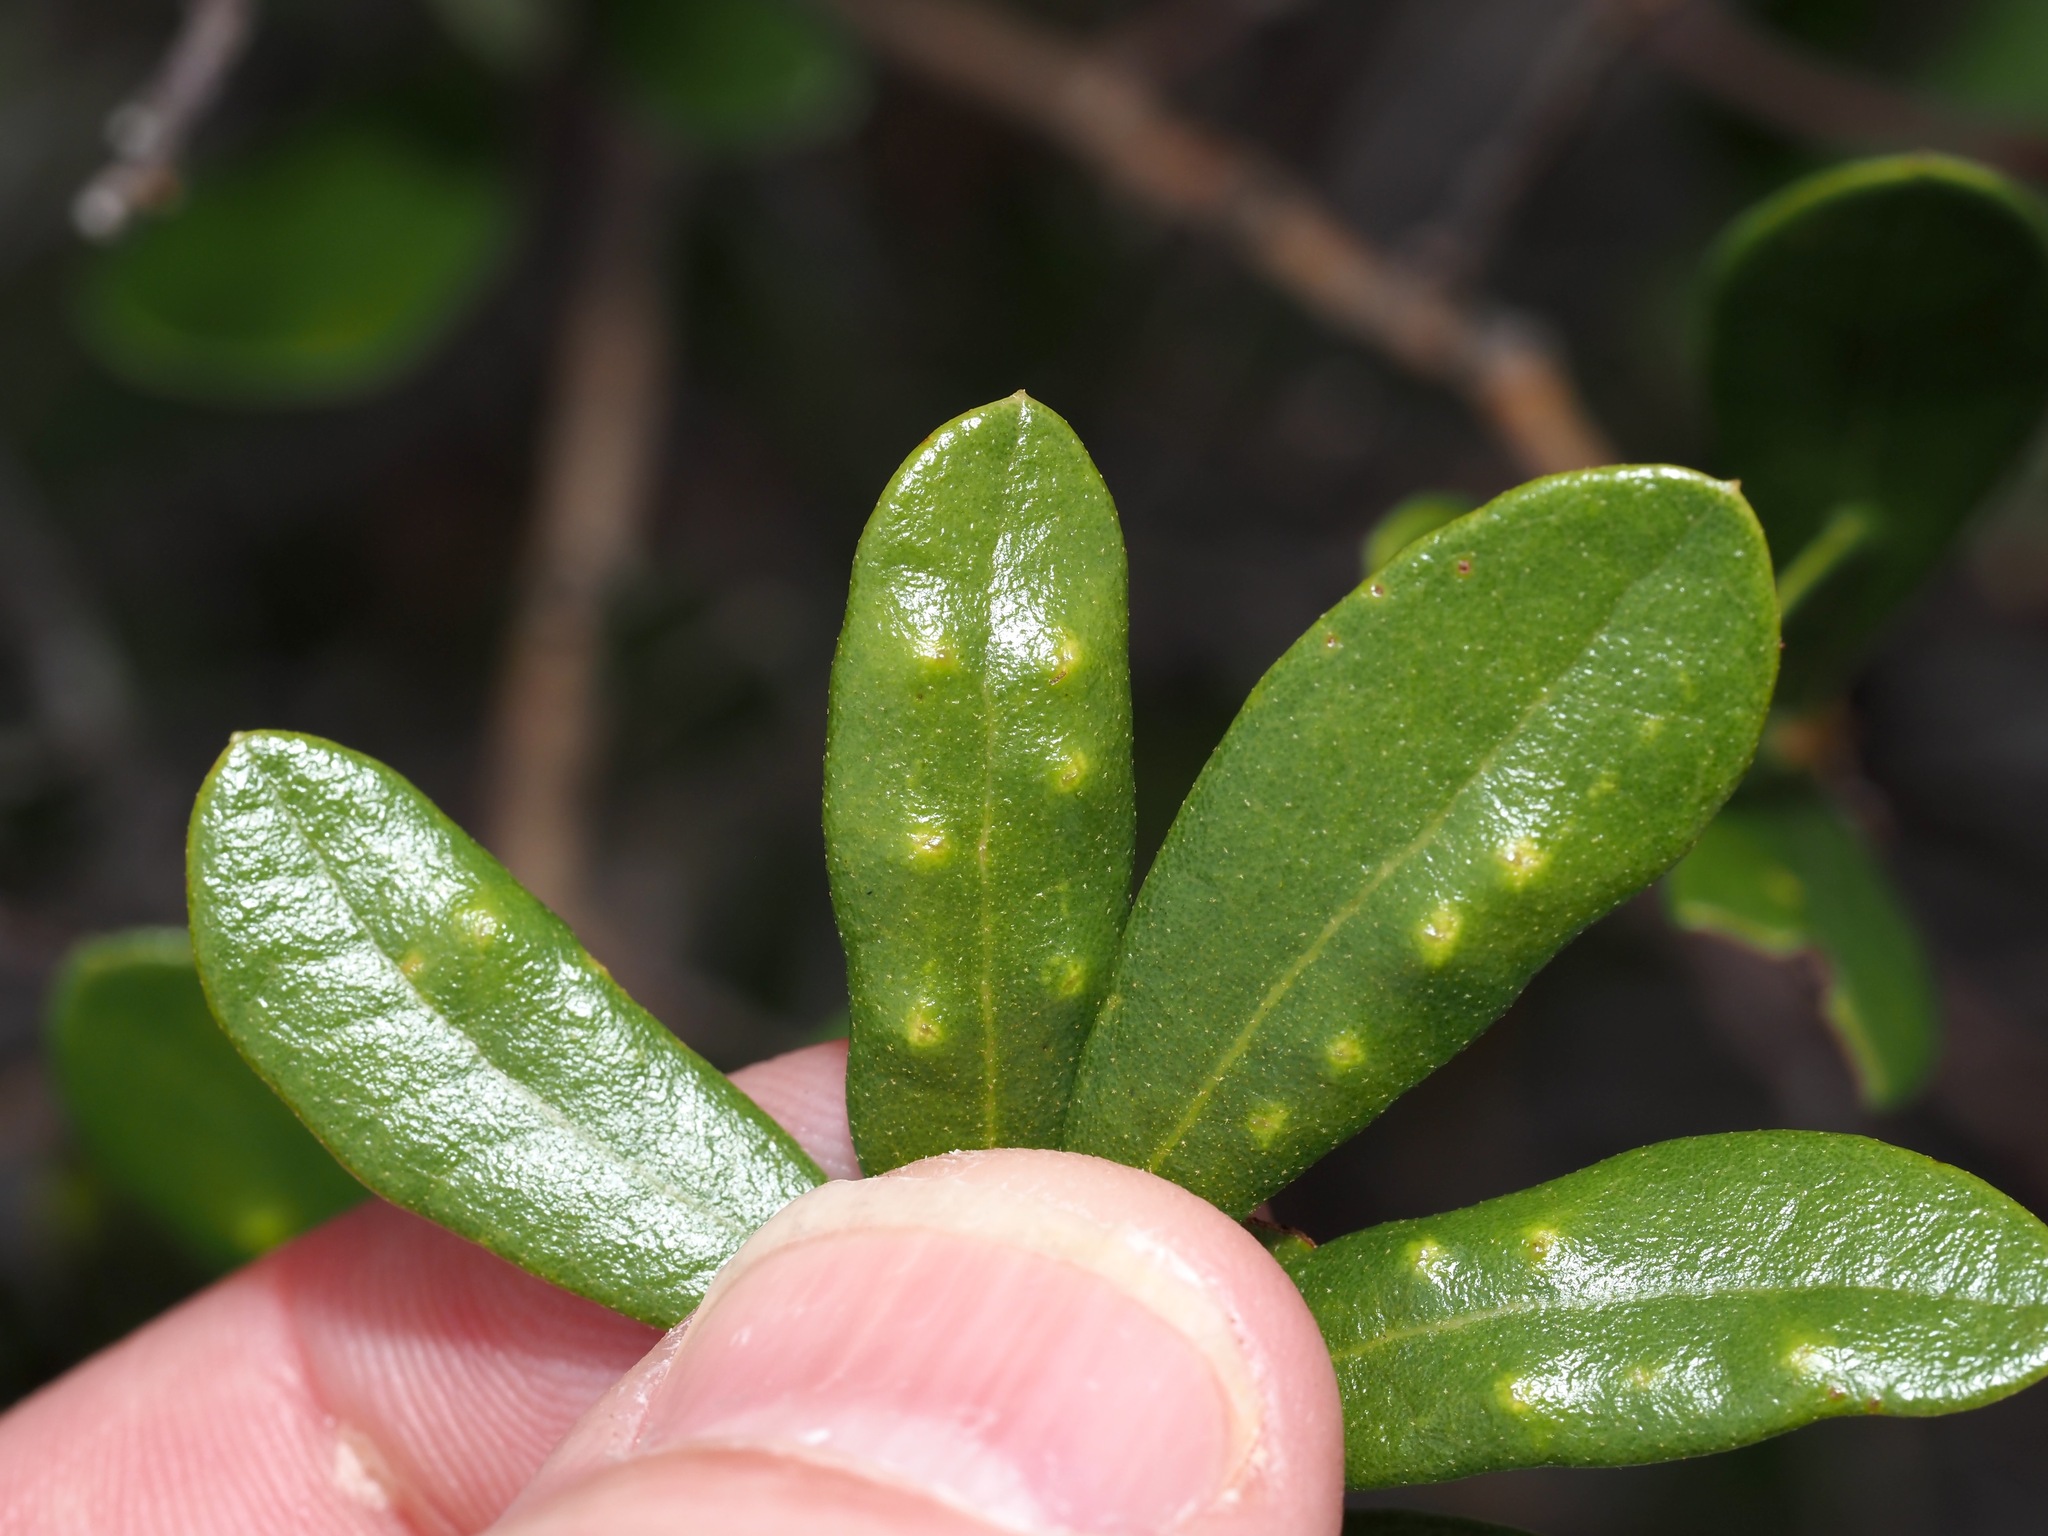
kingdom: Animalia
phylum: Arthropoda
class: Insecta
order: Hymenoptera
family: Cynipidae
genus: Belonocnema
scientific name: Belonocnema fossoria
